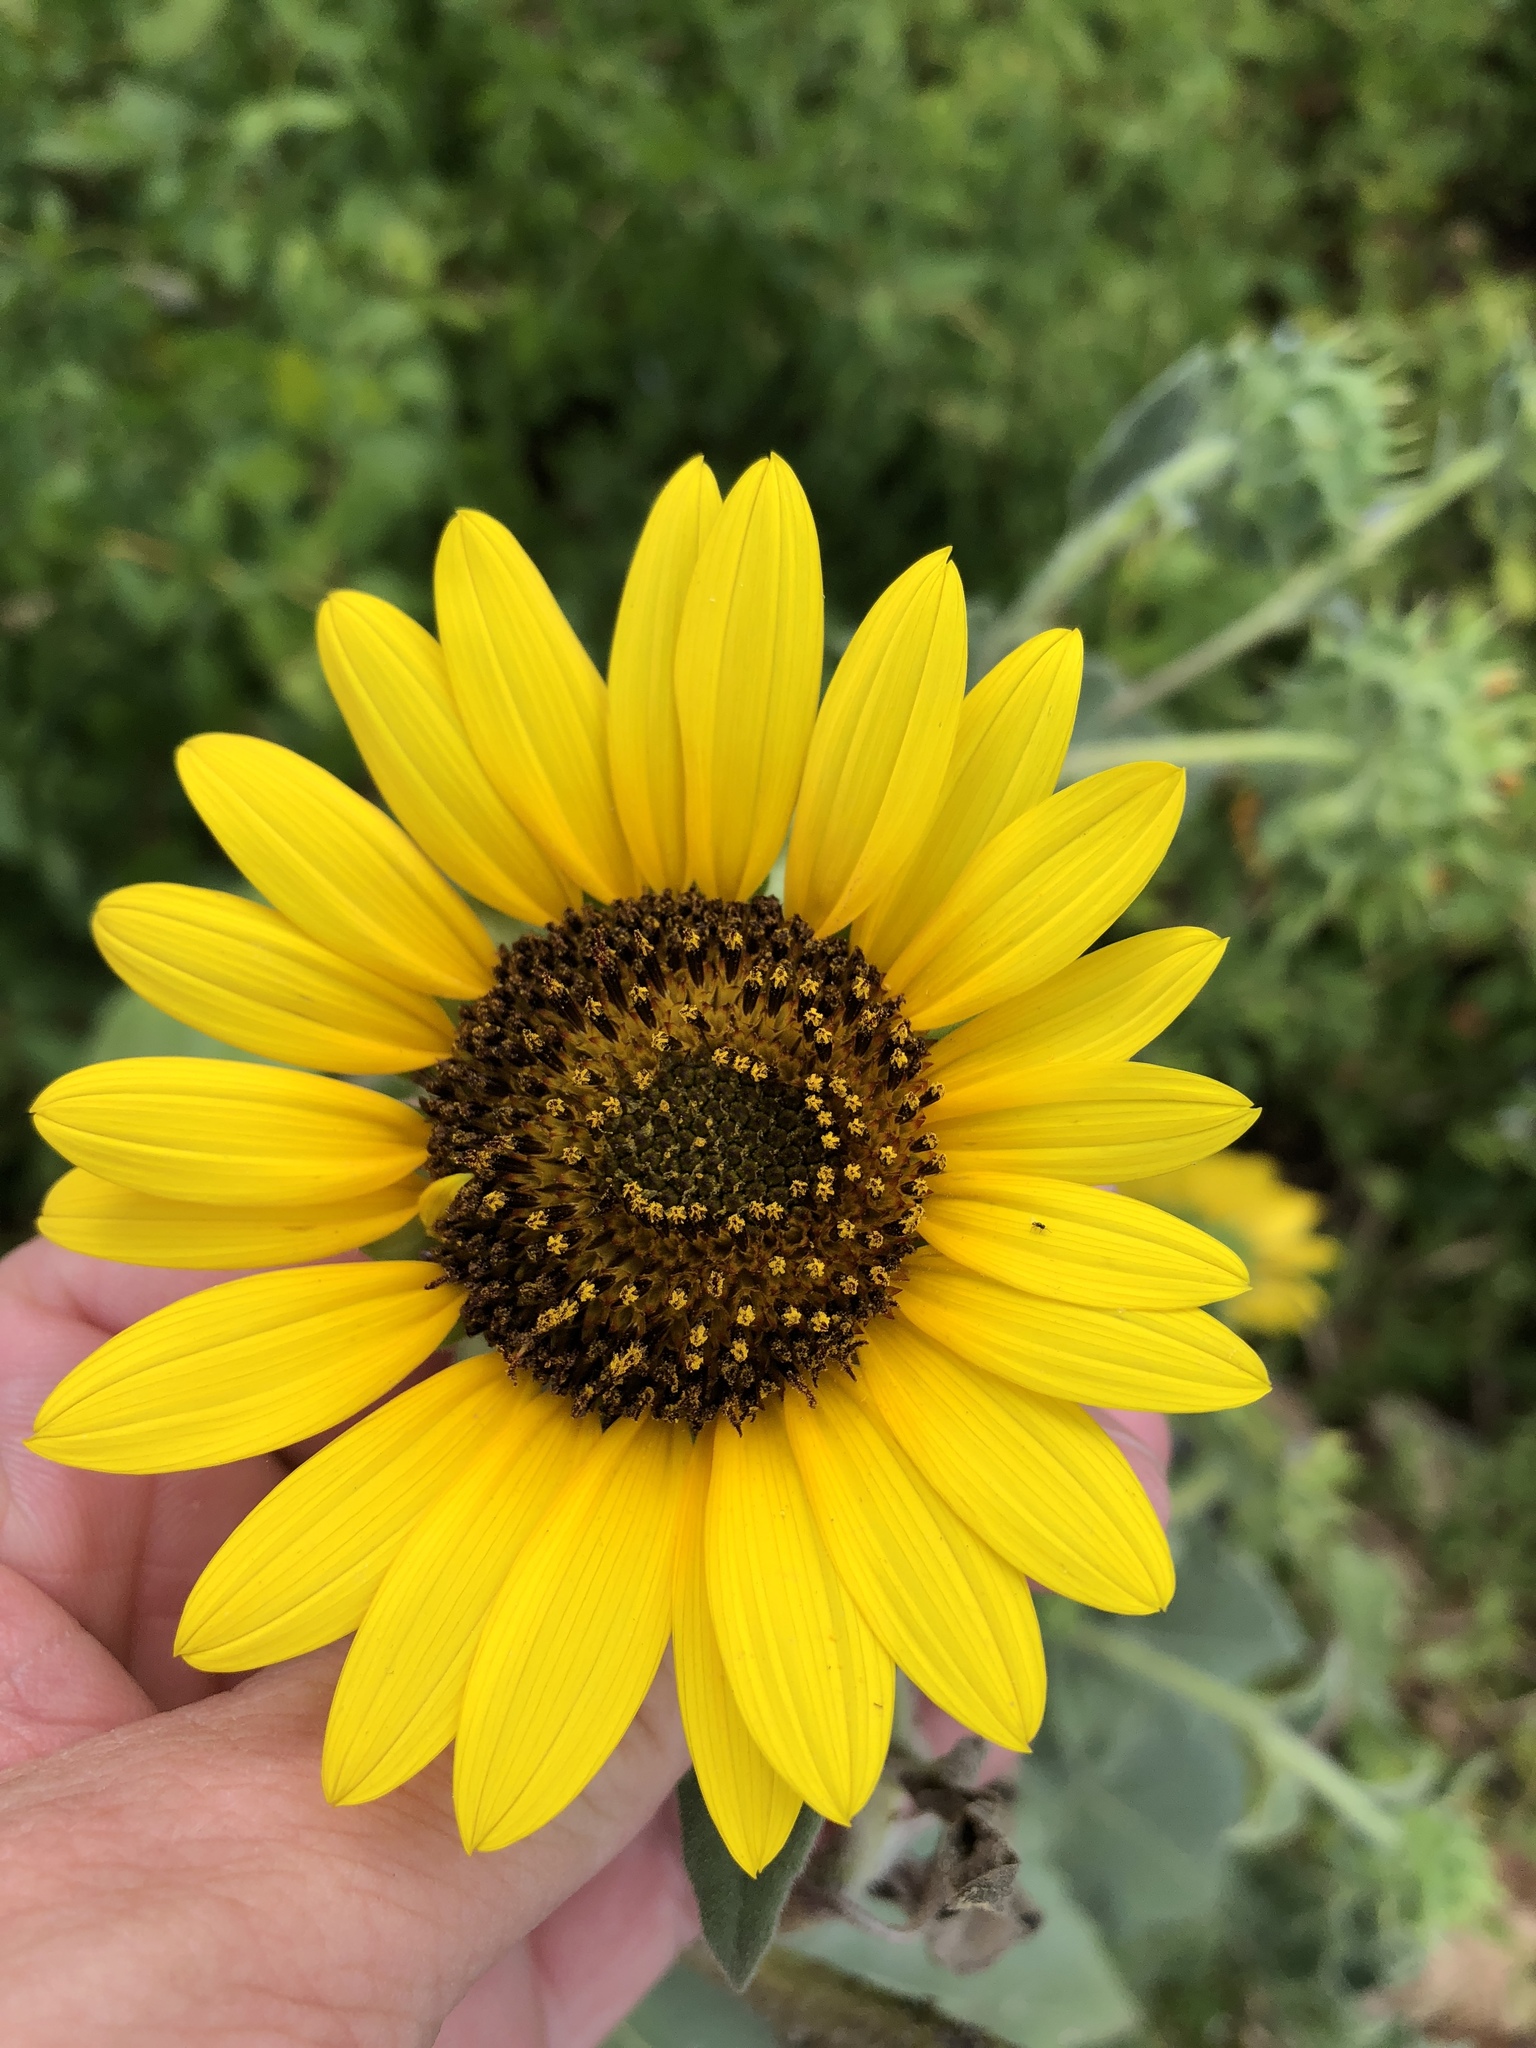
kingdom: Plantae
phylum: Tracheophyta
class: Magnoliopsida
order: Asterales
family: Asteraceae
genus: Helianthus
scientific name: Helianthus annuus
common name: Sunflower
